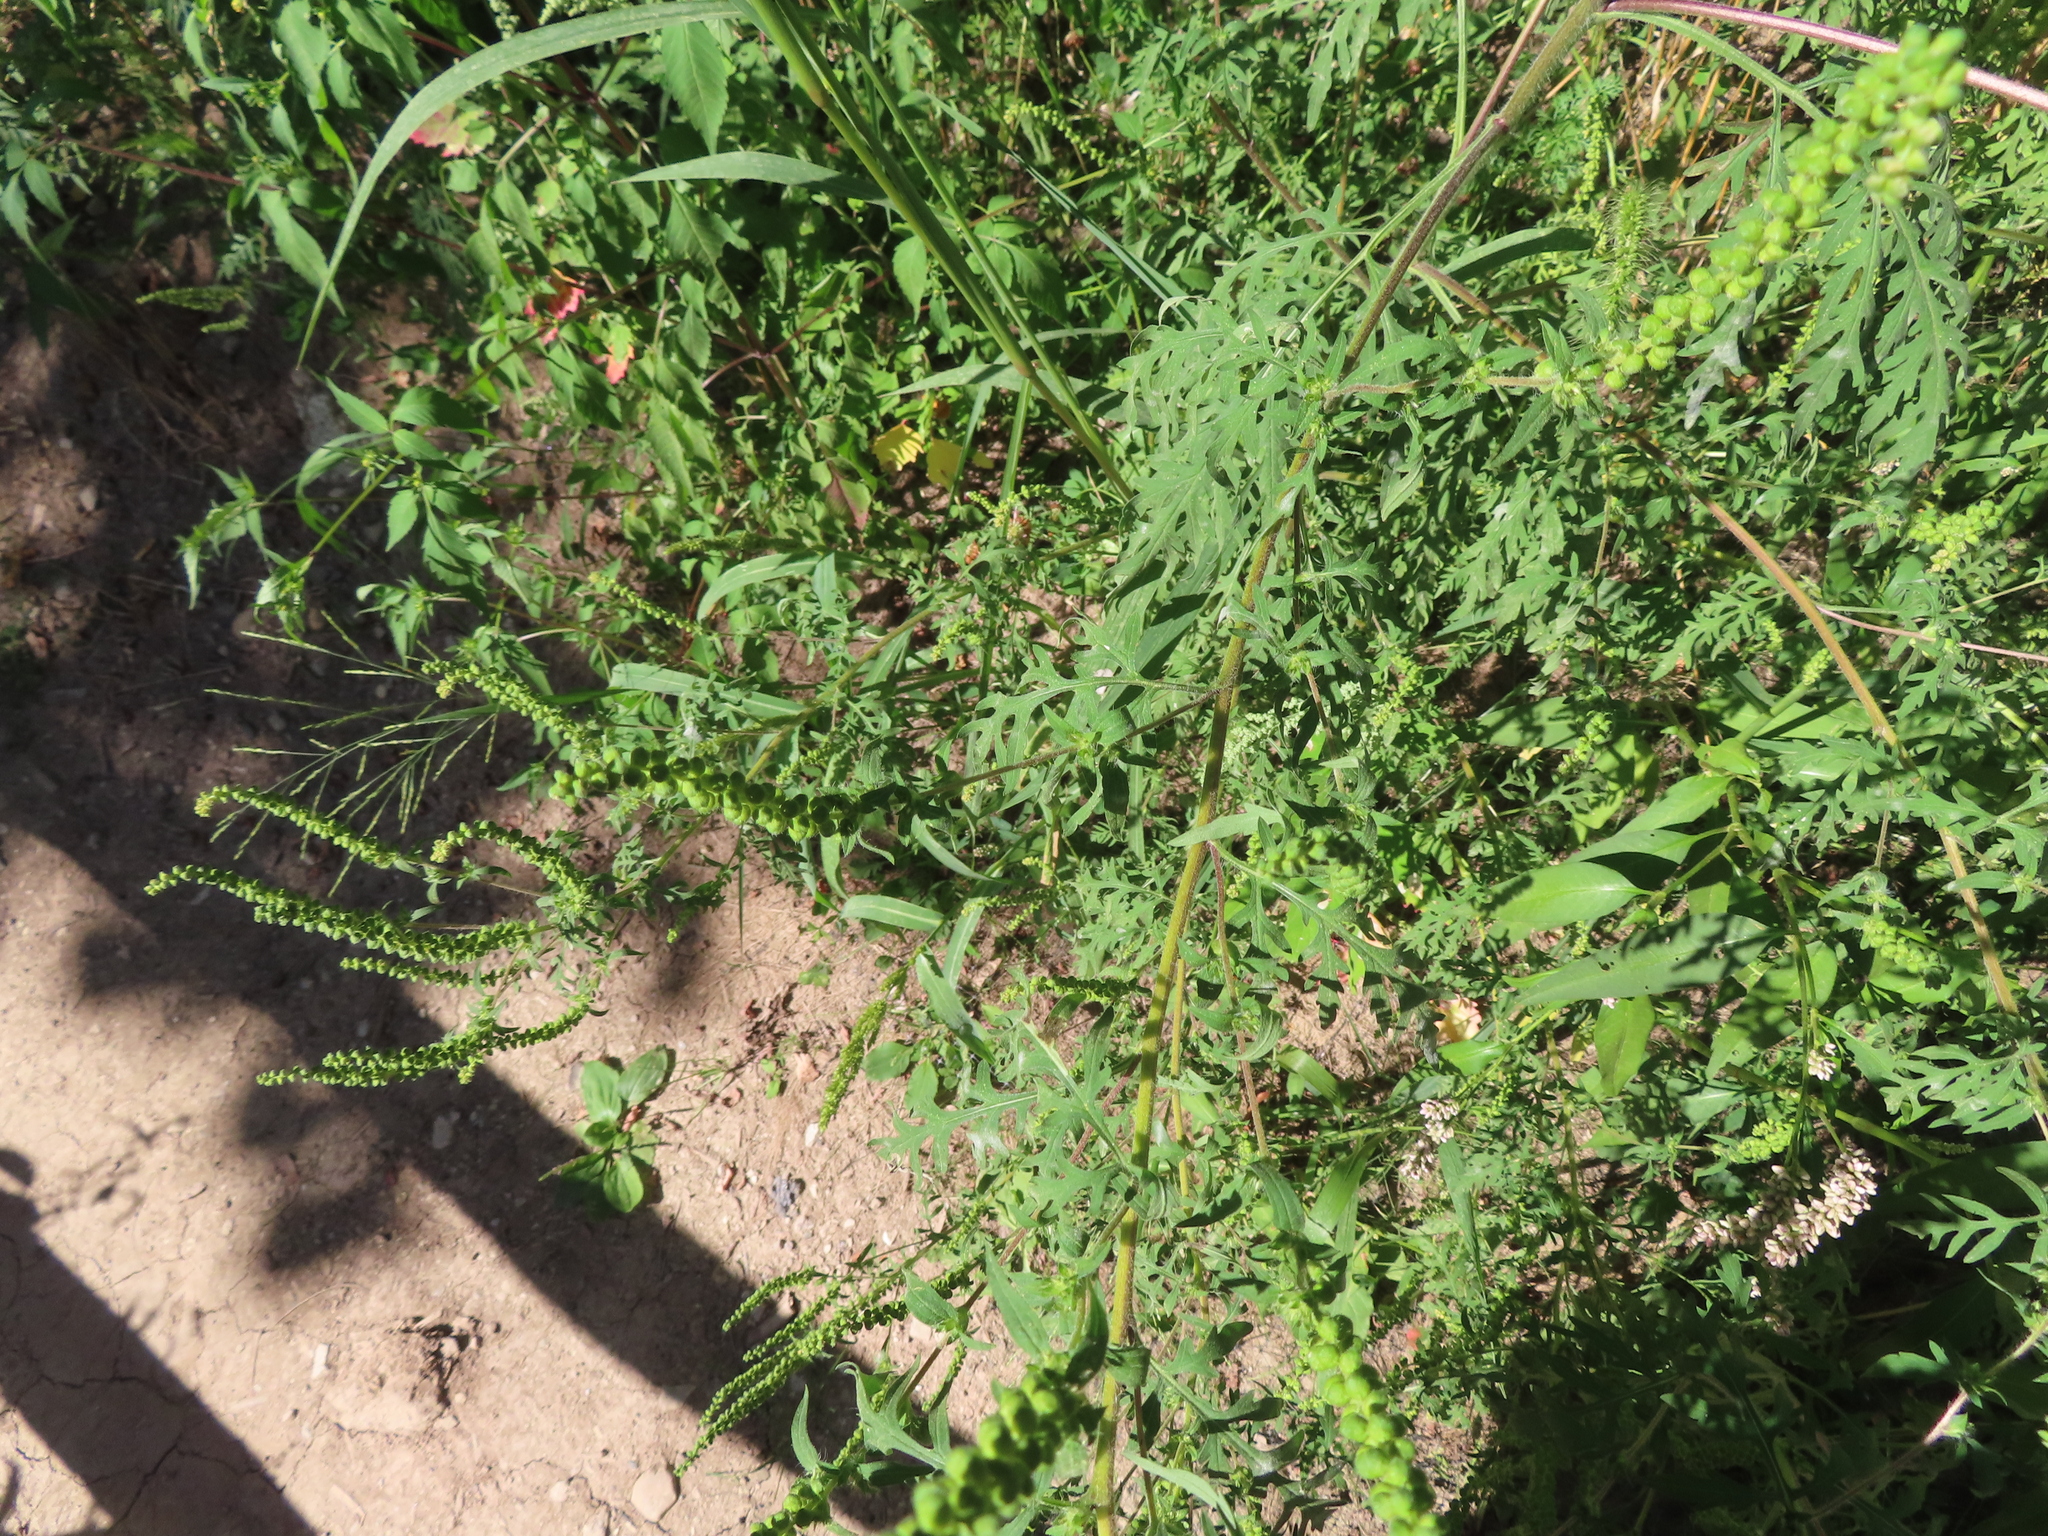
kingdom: Plantae
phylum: Tracheophyta
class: Magnoliopsida
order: Asterales
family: Asteraceae
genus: Ambrosia
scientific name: Ambrosia artemisiifolia
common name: Annual ragweed
